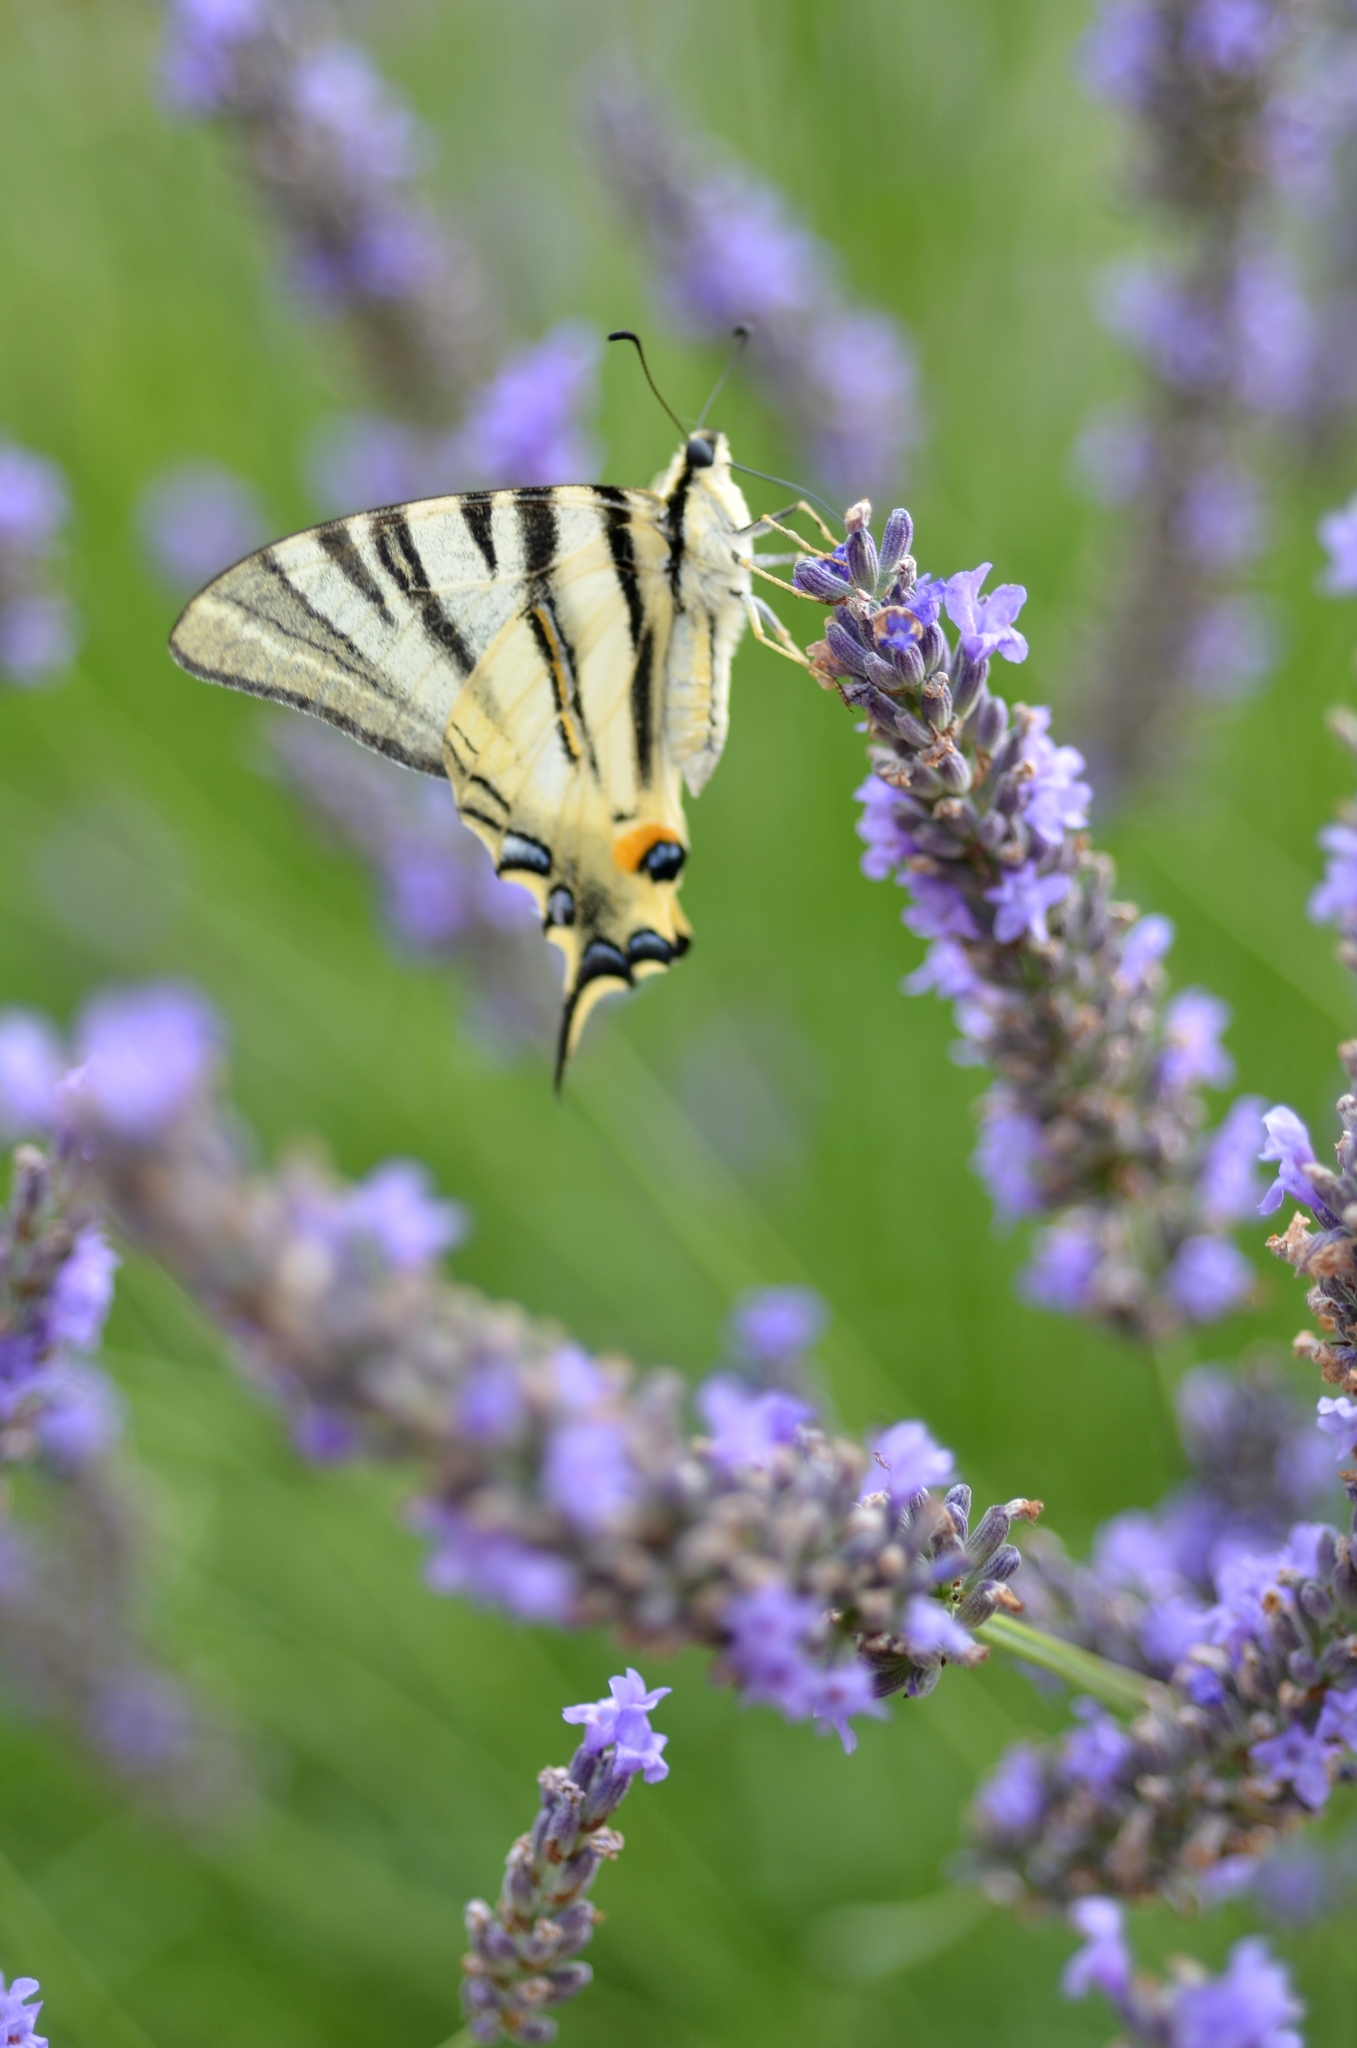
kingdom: Animalia
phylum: Arthropoda
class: Insecta
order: Lepidoptera
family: Papilionidae
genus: Iphiclides
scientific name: Iphiclides podalirius
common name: Scarce swallowtail
